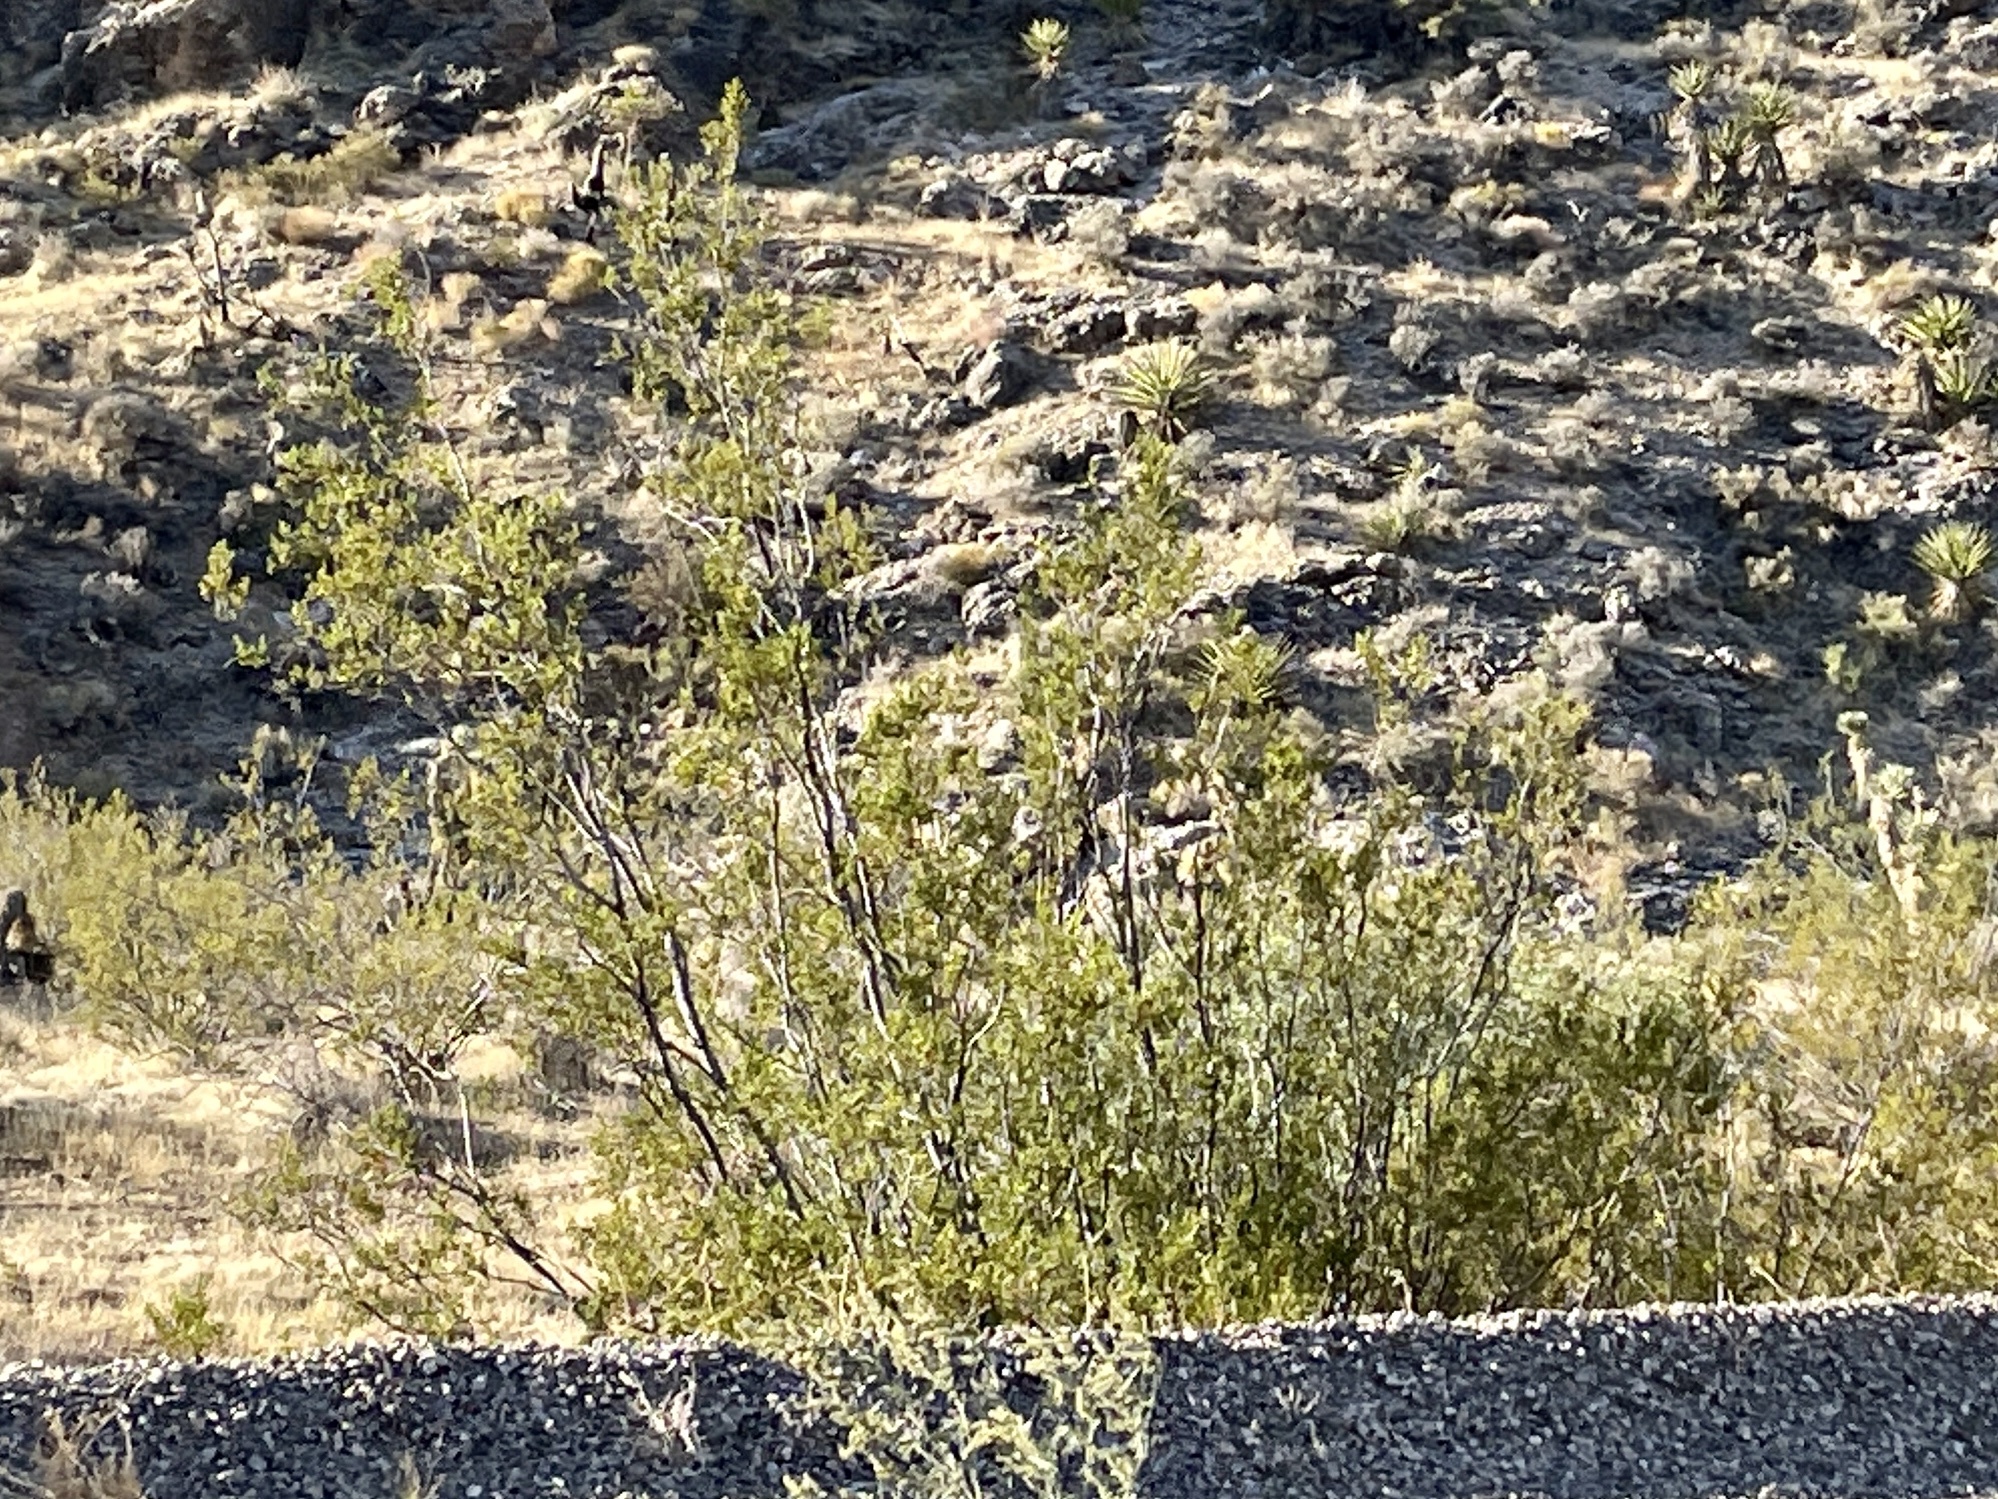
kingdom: Plantae
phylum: Tracheophyta
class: Magnoliopsida
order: Zygophyllales
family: Zygophyllaceae
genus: Larrea
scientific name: Larrea tridentata
